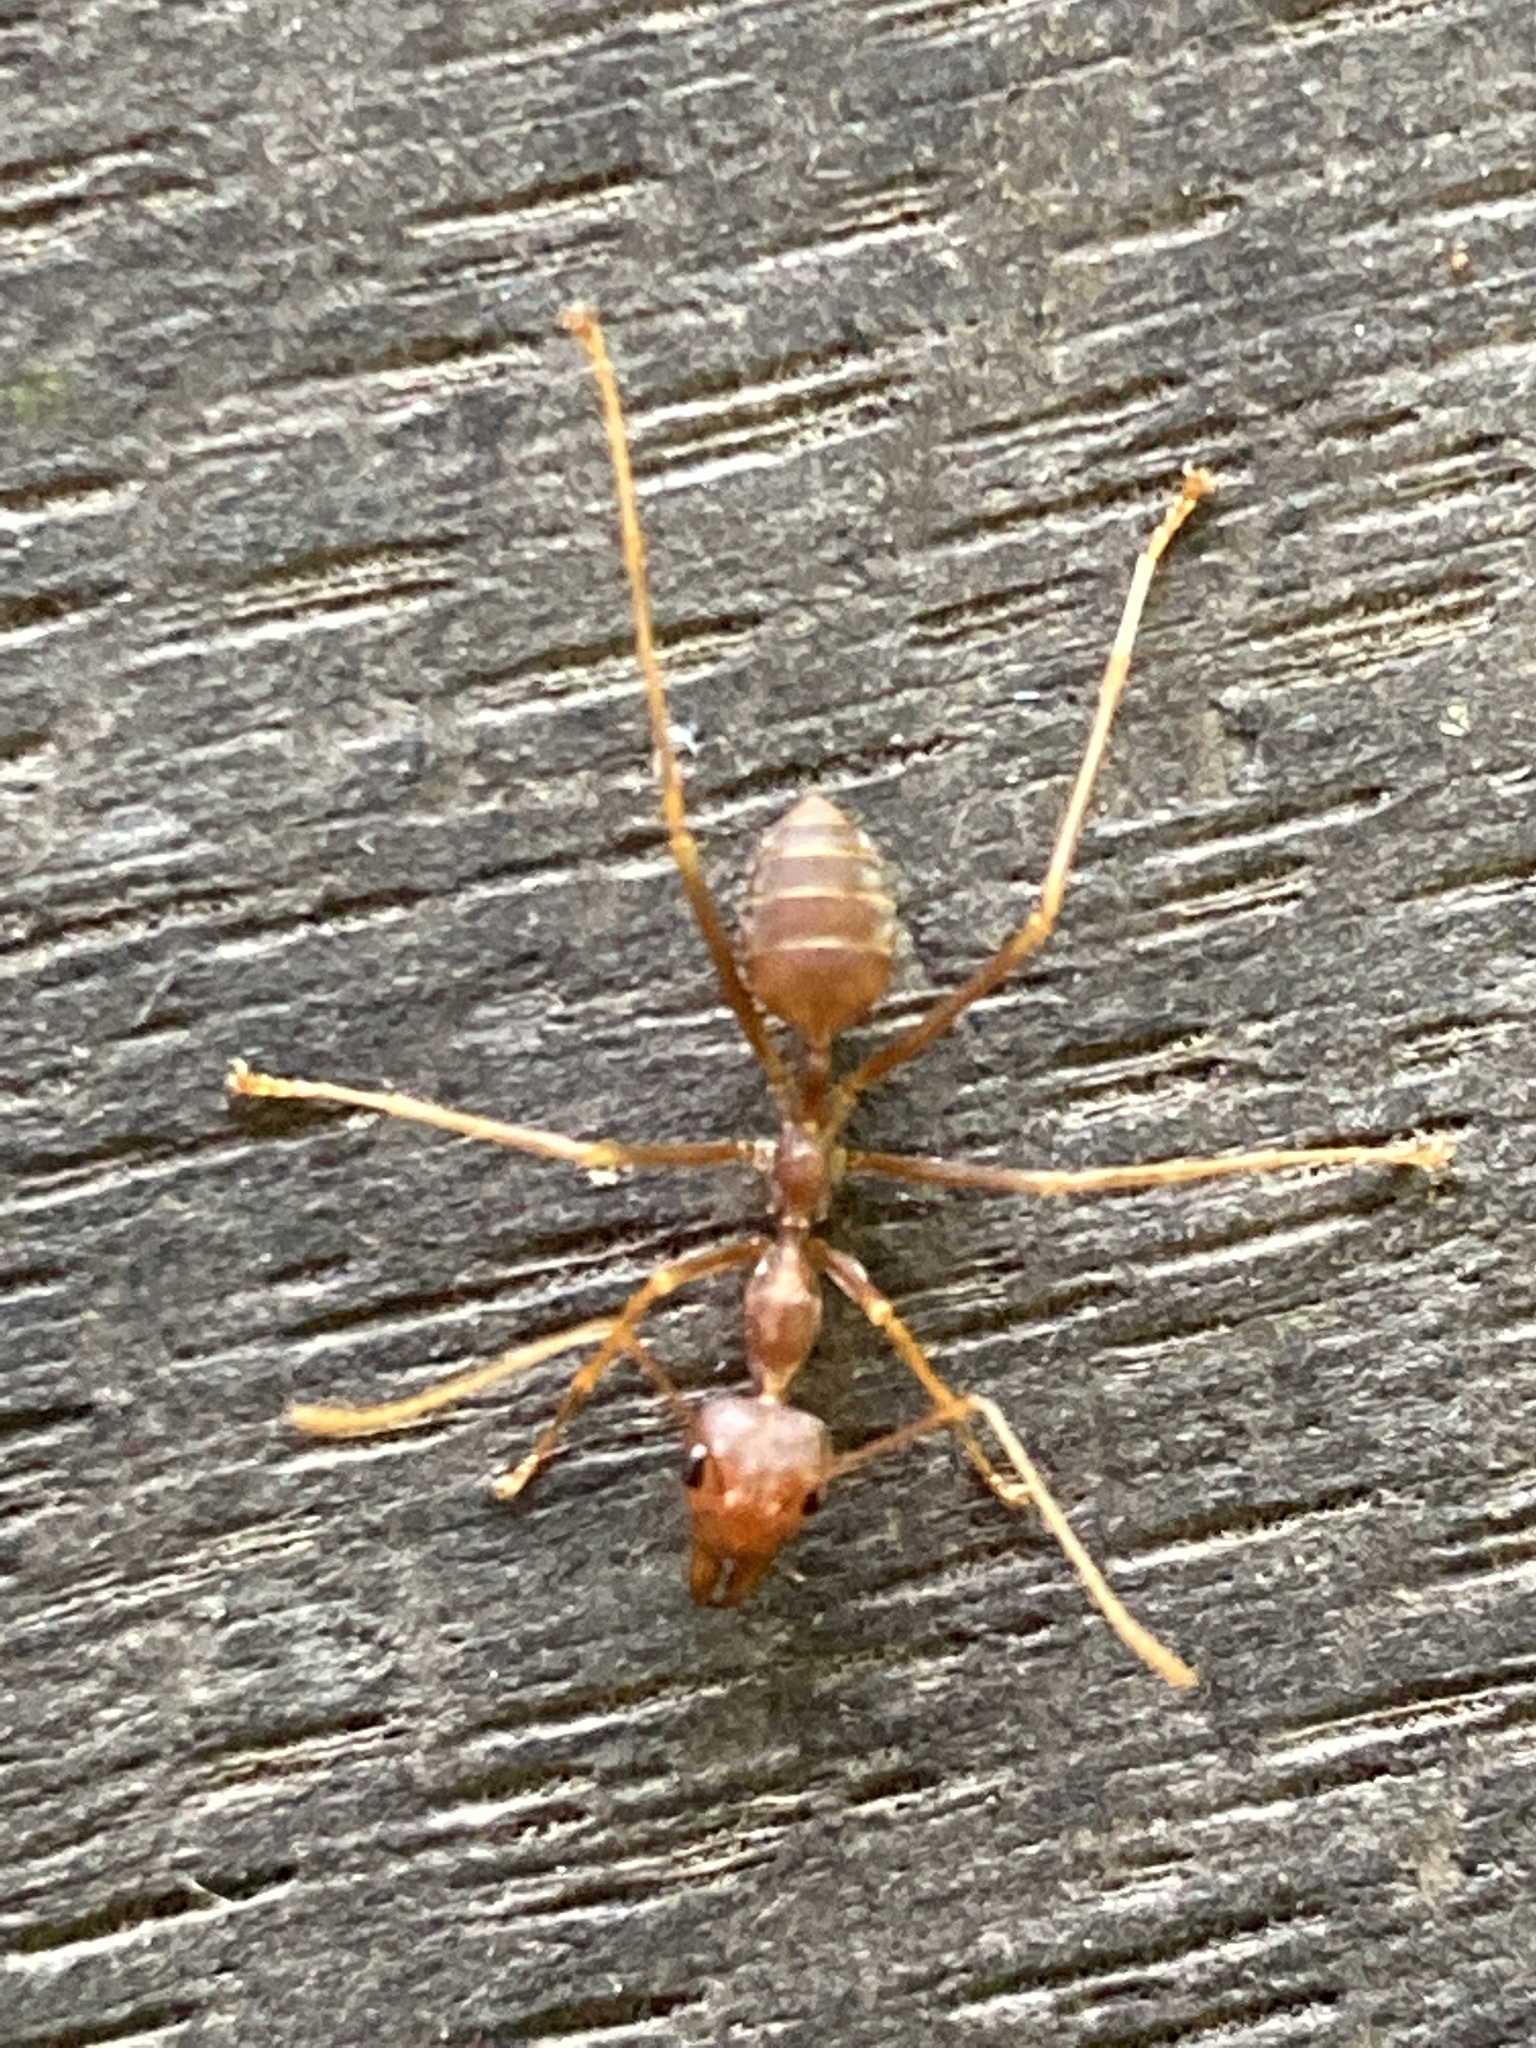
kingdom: Animalia
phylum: Arthropoda
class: Insecta
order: Hymenoptera
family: Formicidae
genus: Oecophylla
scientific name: Oecophylla smaragdina
